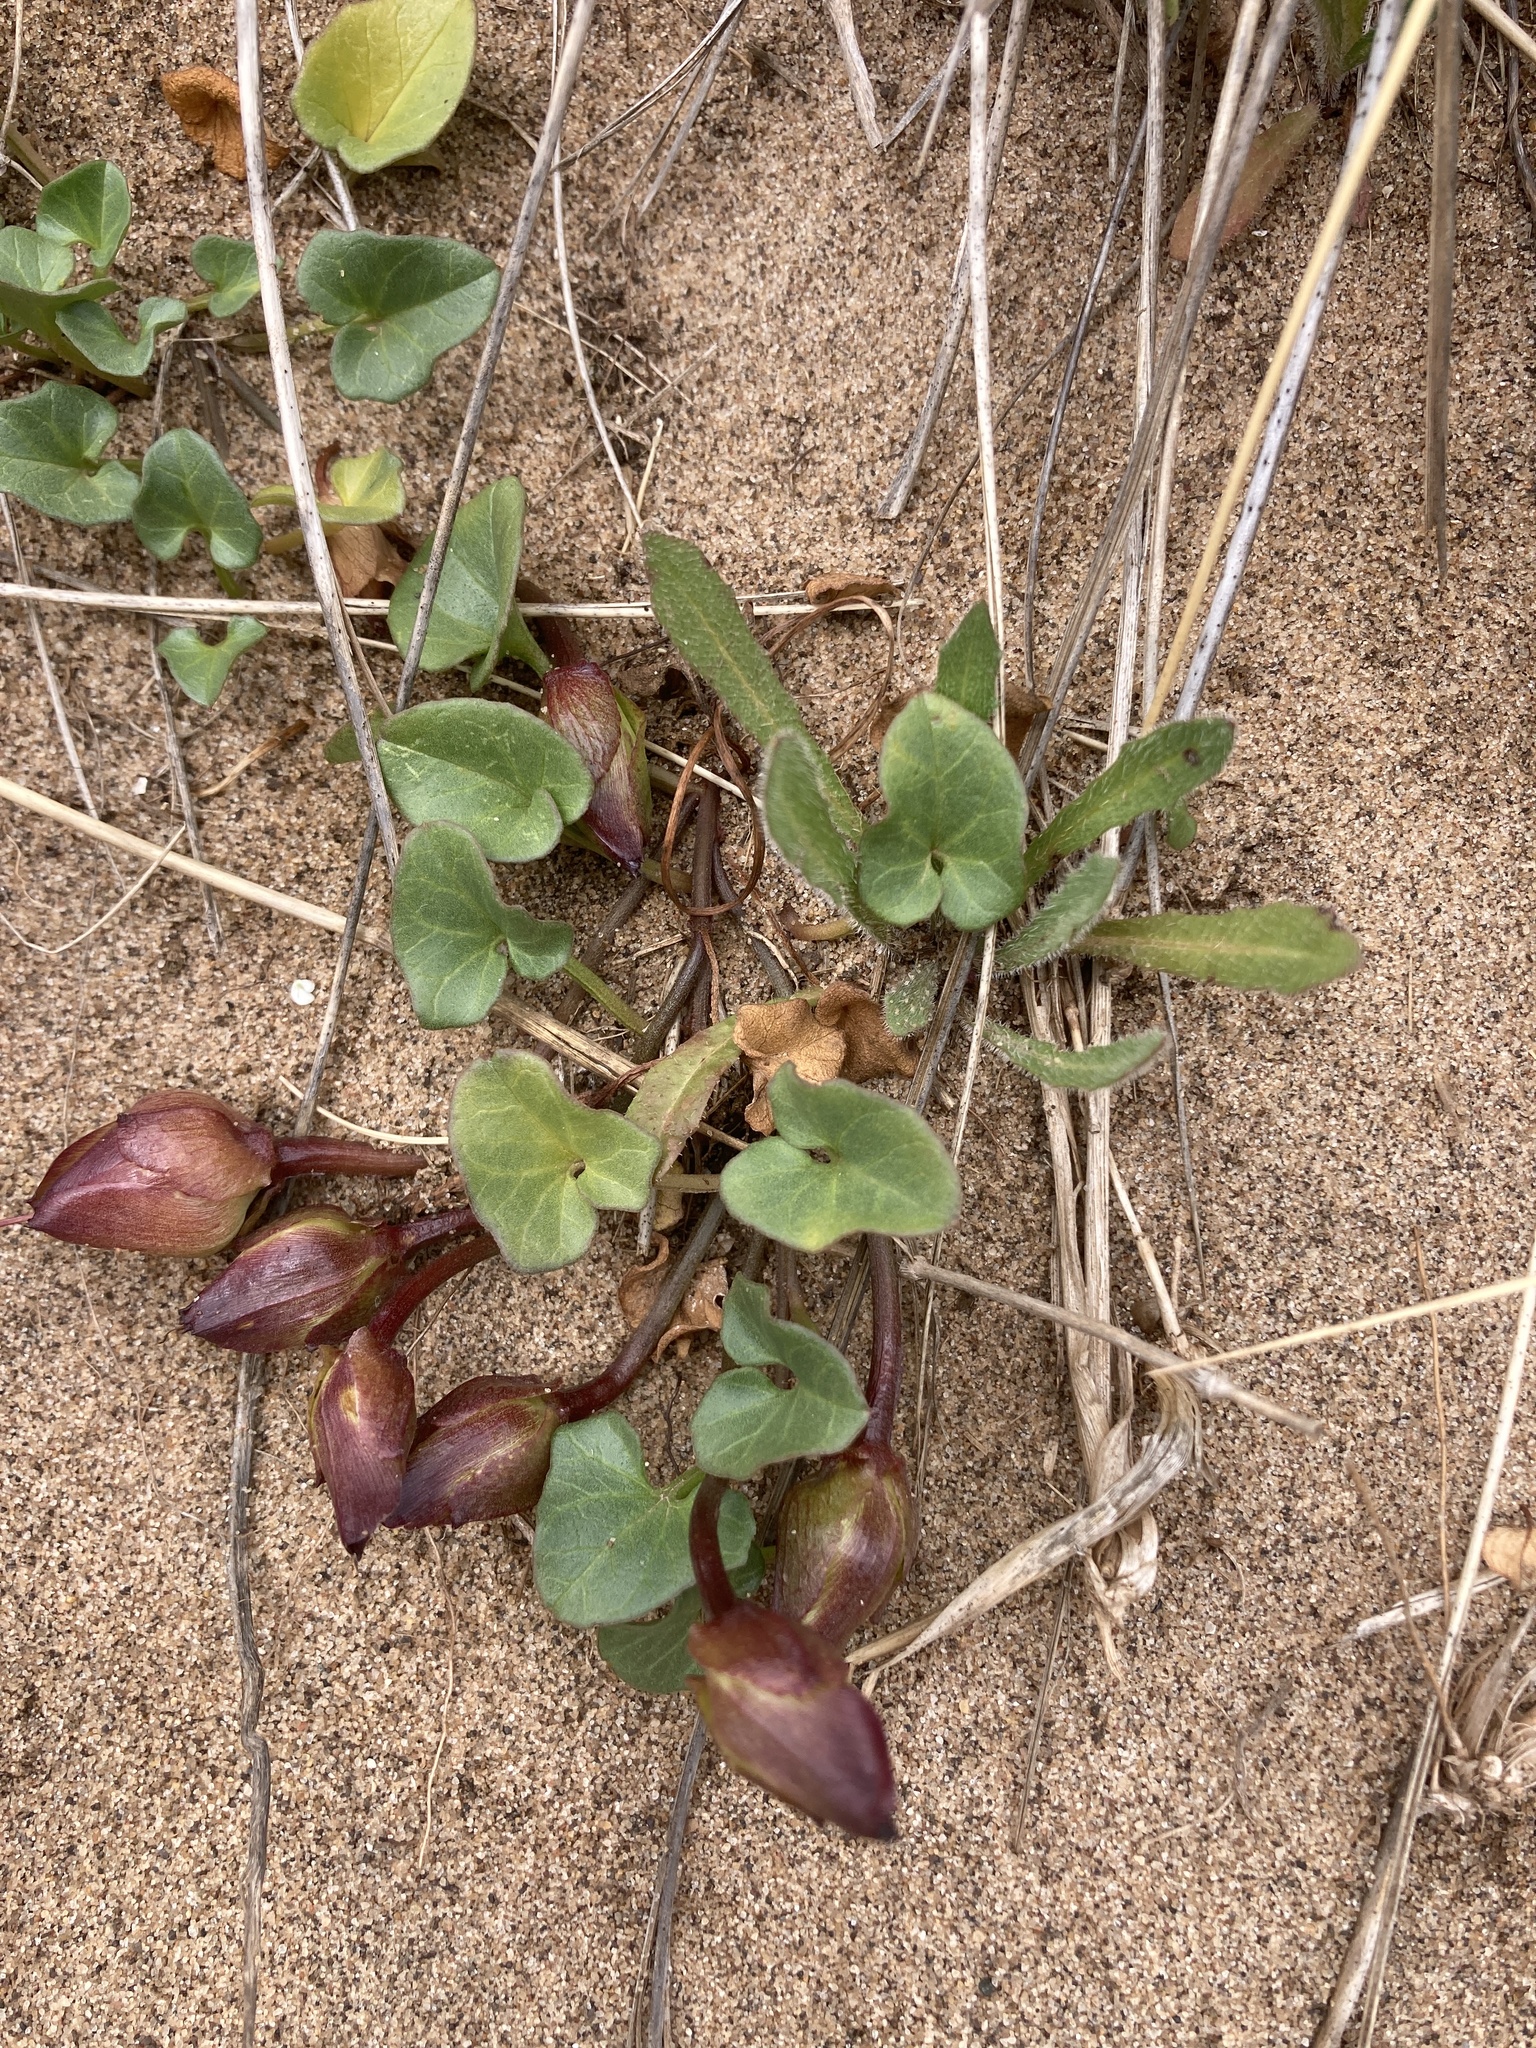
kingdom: Plantae
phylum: Tracheophyta
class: Magnoliopsida
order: Solanales
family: Convolvulaceae
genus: Calystegia
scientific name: Calystegia soldanella
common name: Sea bindweed
